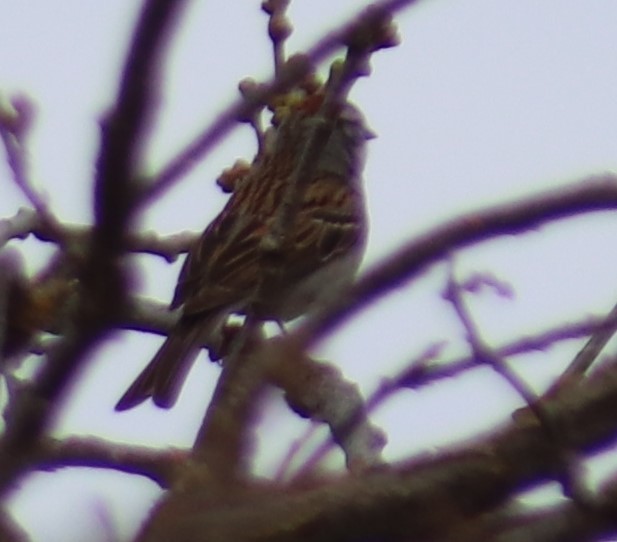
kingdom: Animalia
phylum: Chordata
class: Aves
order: Passeriformes
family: Passerellidae
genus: Spizella
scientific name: Spizella passerina
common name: Chipping sparrow
